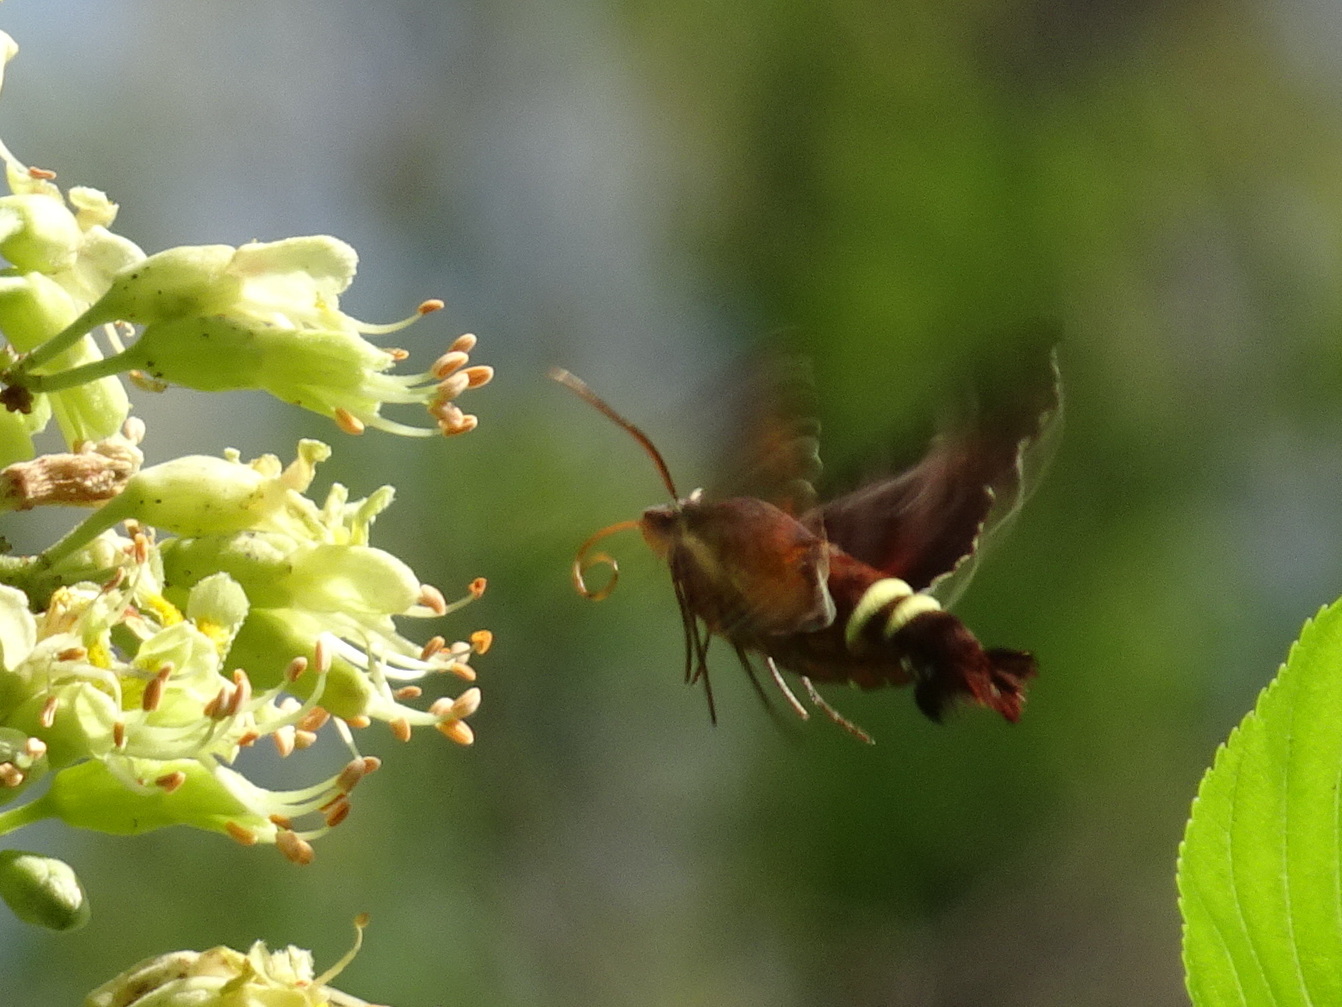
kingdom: Animalia
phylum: Arthropoda
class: Insecta
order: Lepidoptera
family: Sphingidae
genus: Amphion
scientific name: Amphion floridensis
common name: Nessus sphinx
